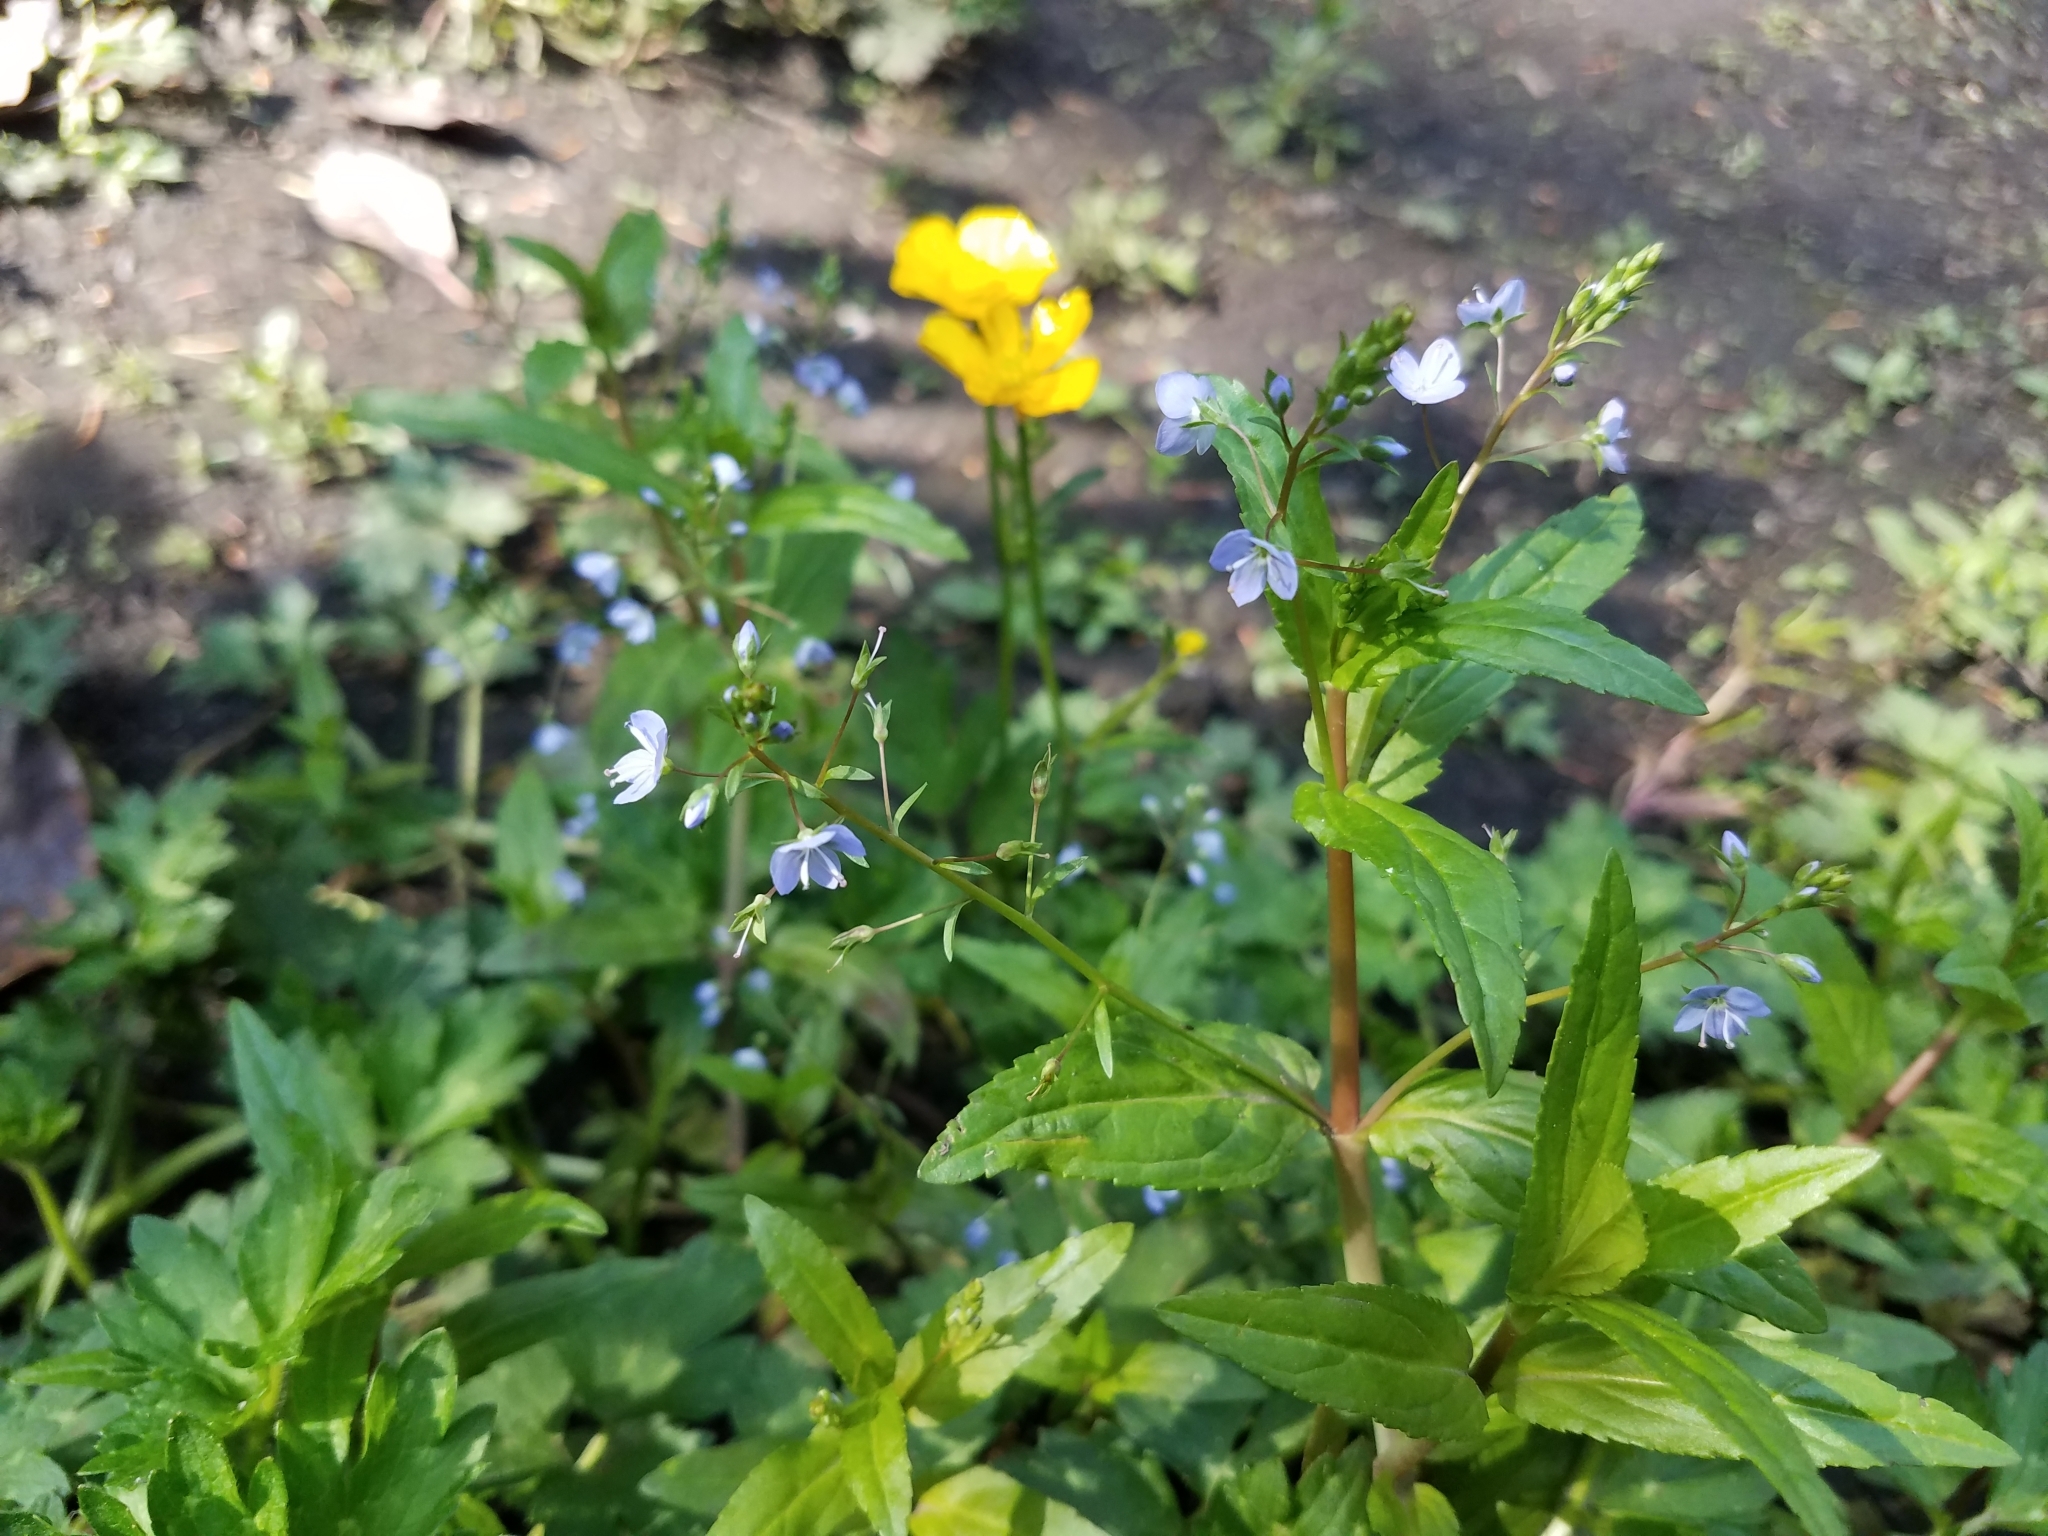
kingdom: Plantae
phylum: Tracheophyta
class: Magnoliopsida
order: Lamiales
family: Plantaginaceae
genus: Veronica
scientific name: Veronica americana
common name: American brooklime
